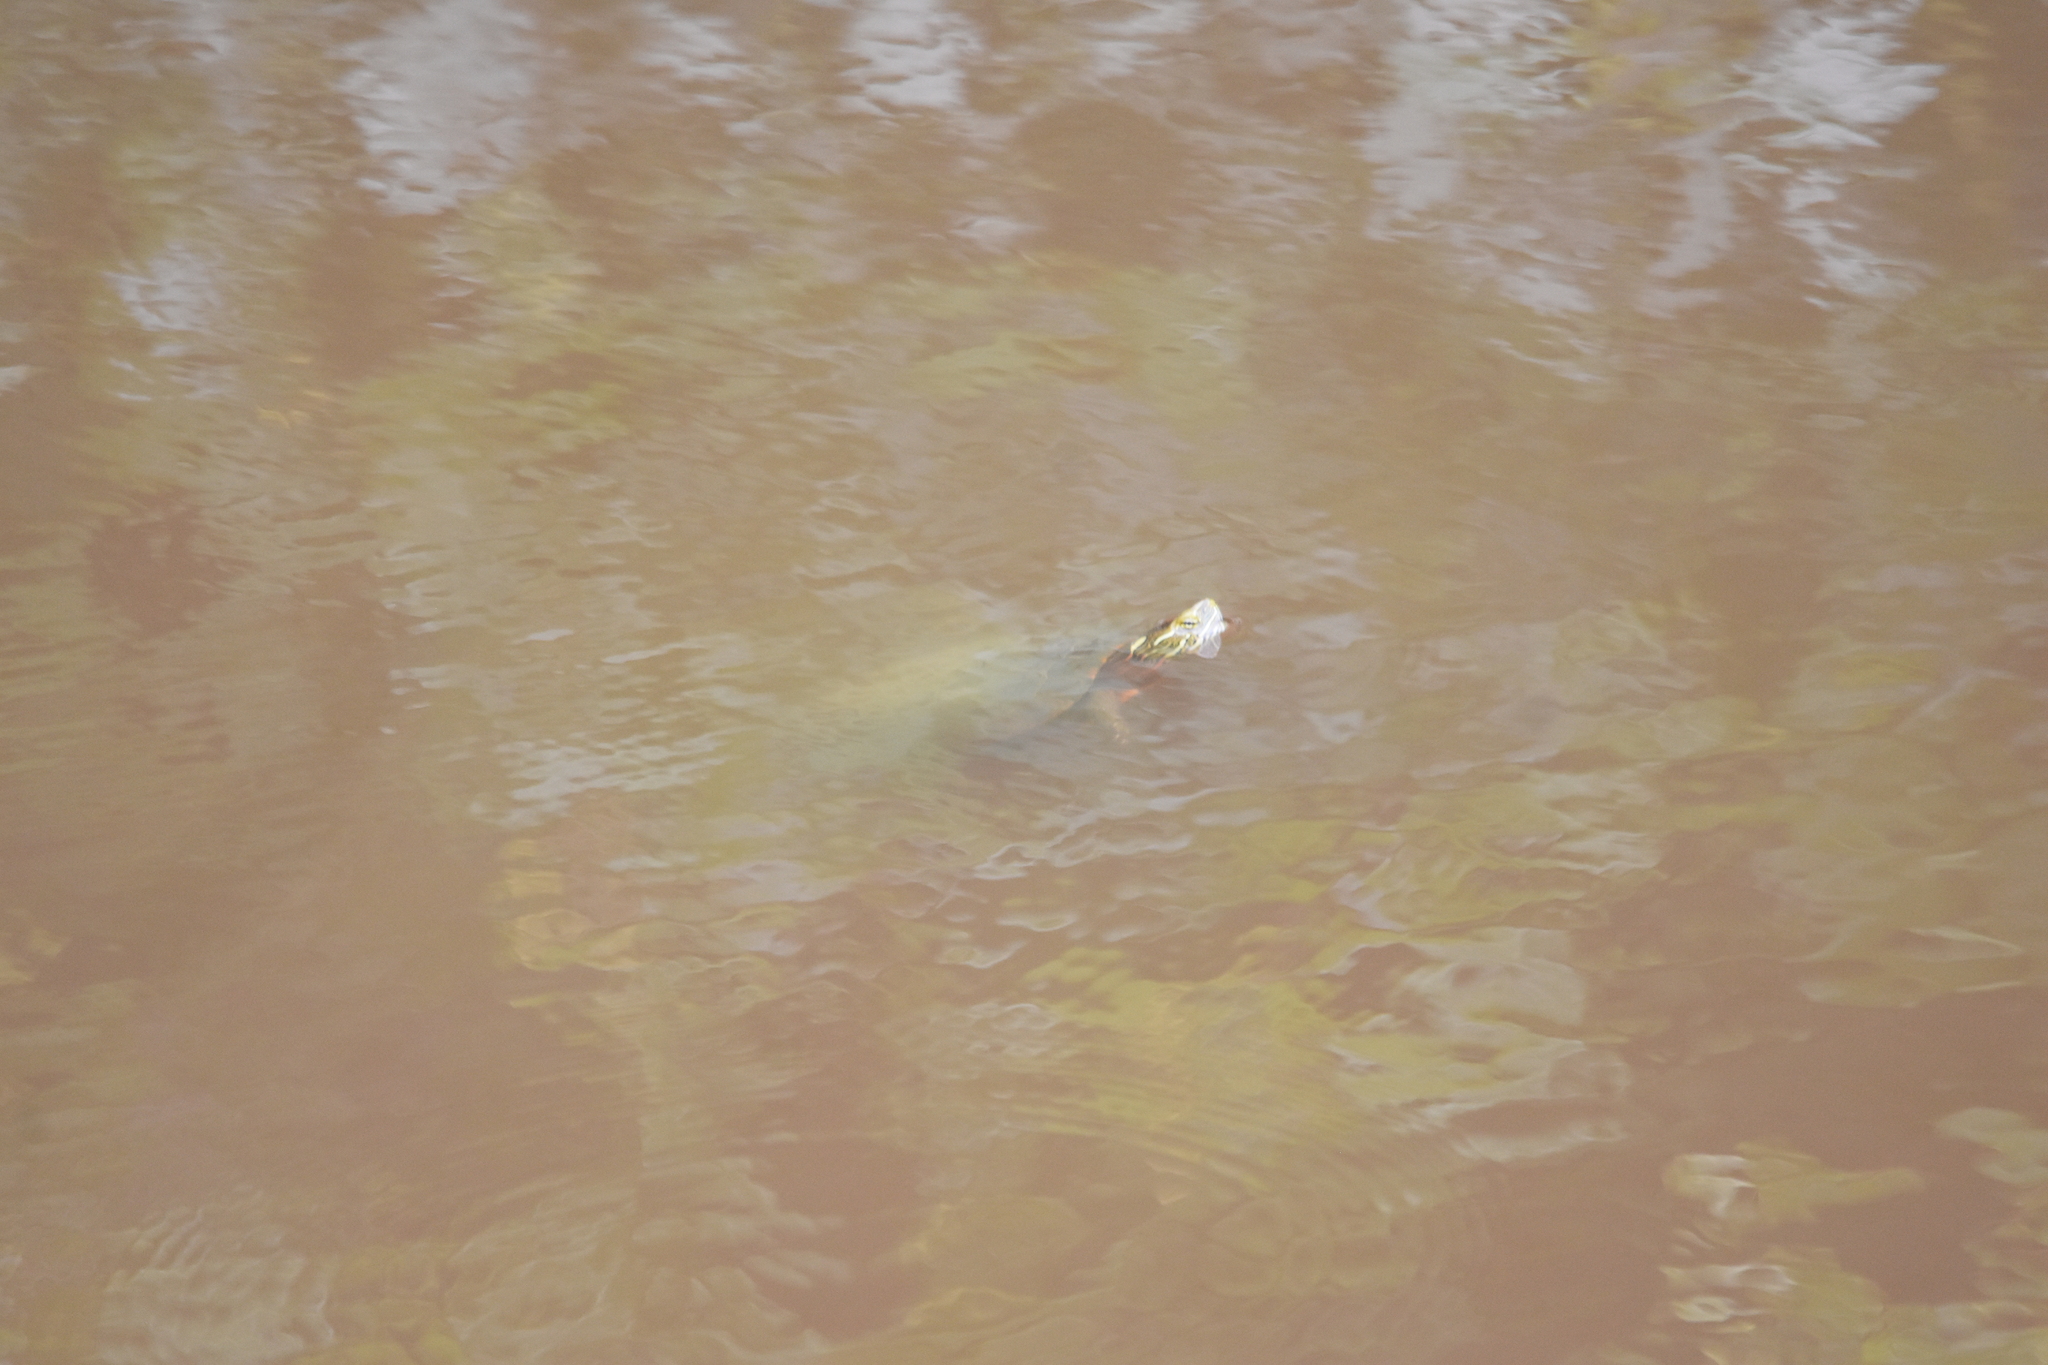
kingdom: Animalia
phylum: Chordata
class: Testudines
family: Emydidae
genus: Chrysemys
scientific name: Chrysemys picta
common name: Painted turtle
